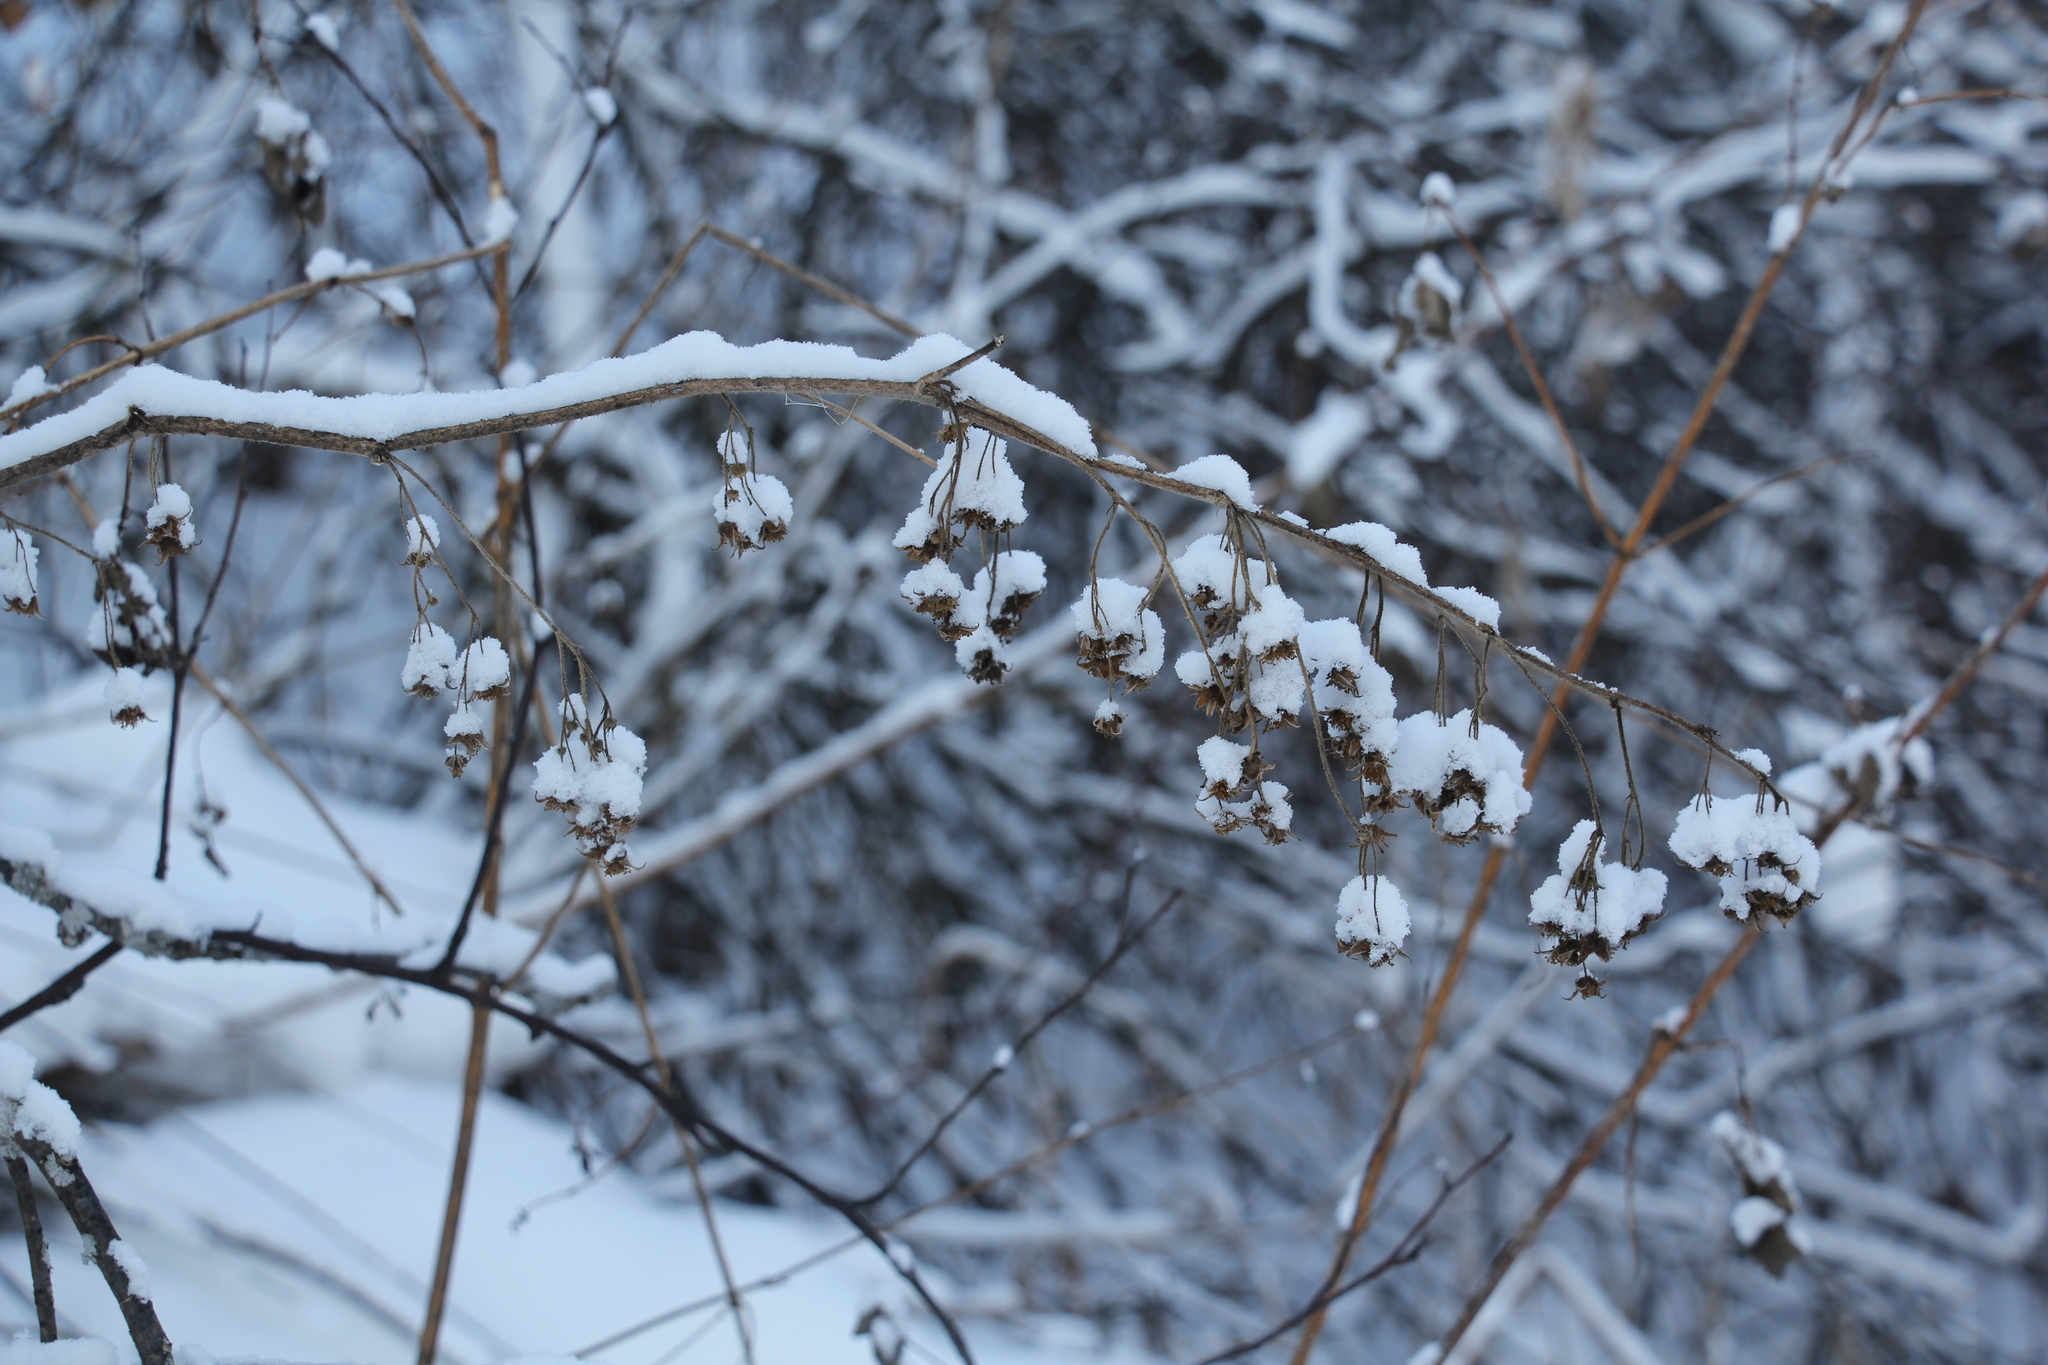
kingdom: Plantae
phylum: Tracheophyta
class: Magnoliopsida
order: Rosales
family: Rosaceae
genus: Rubus
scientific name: Rubus idaeus
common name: Raspberry
